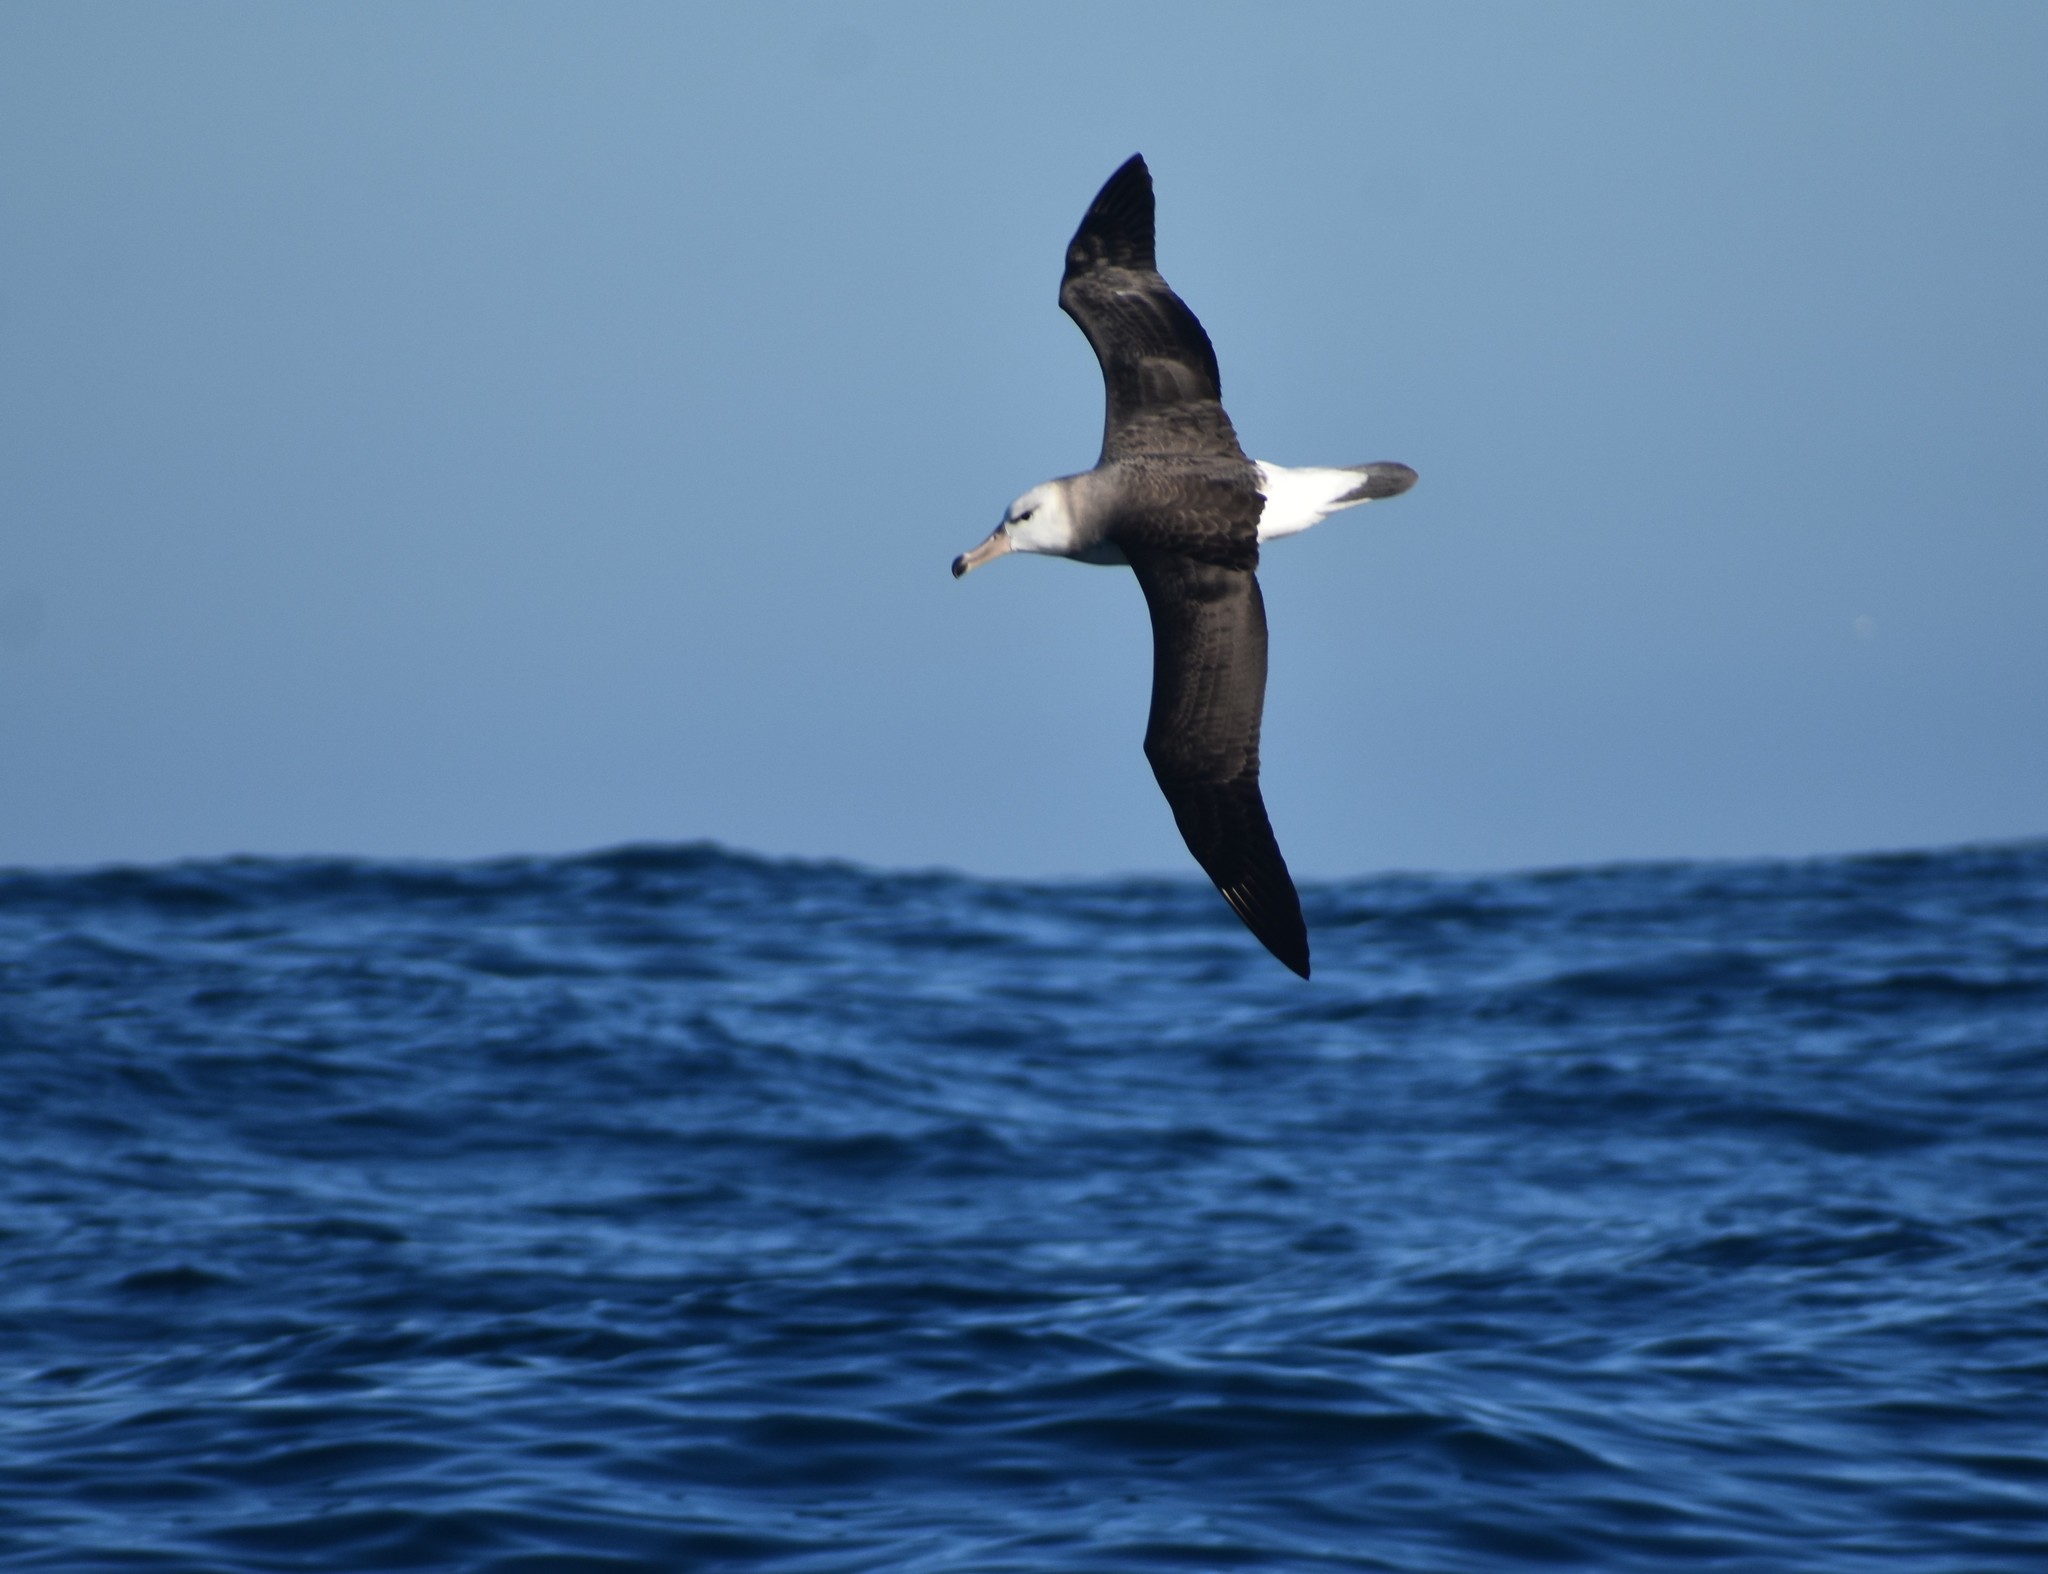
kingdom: Animalia
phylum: Chordata
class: Aves
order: Procellariiformes
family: Diomedeidae
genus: Thalassarche
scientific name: Thalassarche melanophris
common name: Black-browed albatross
